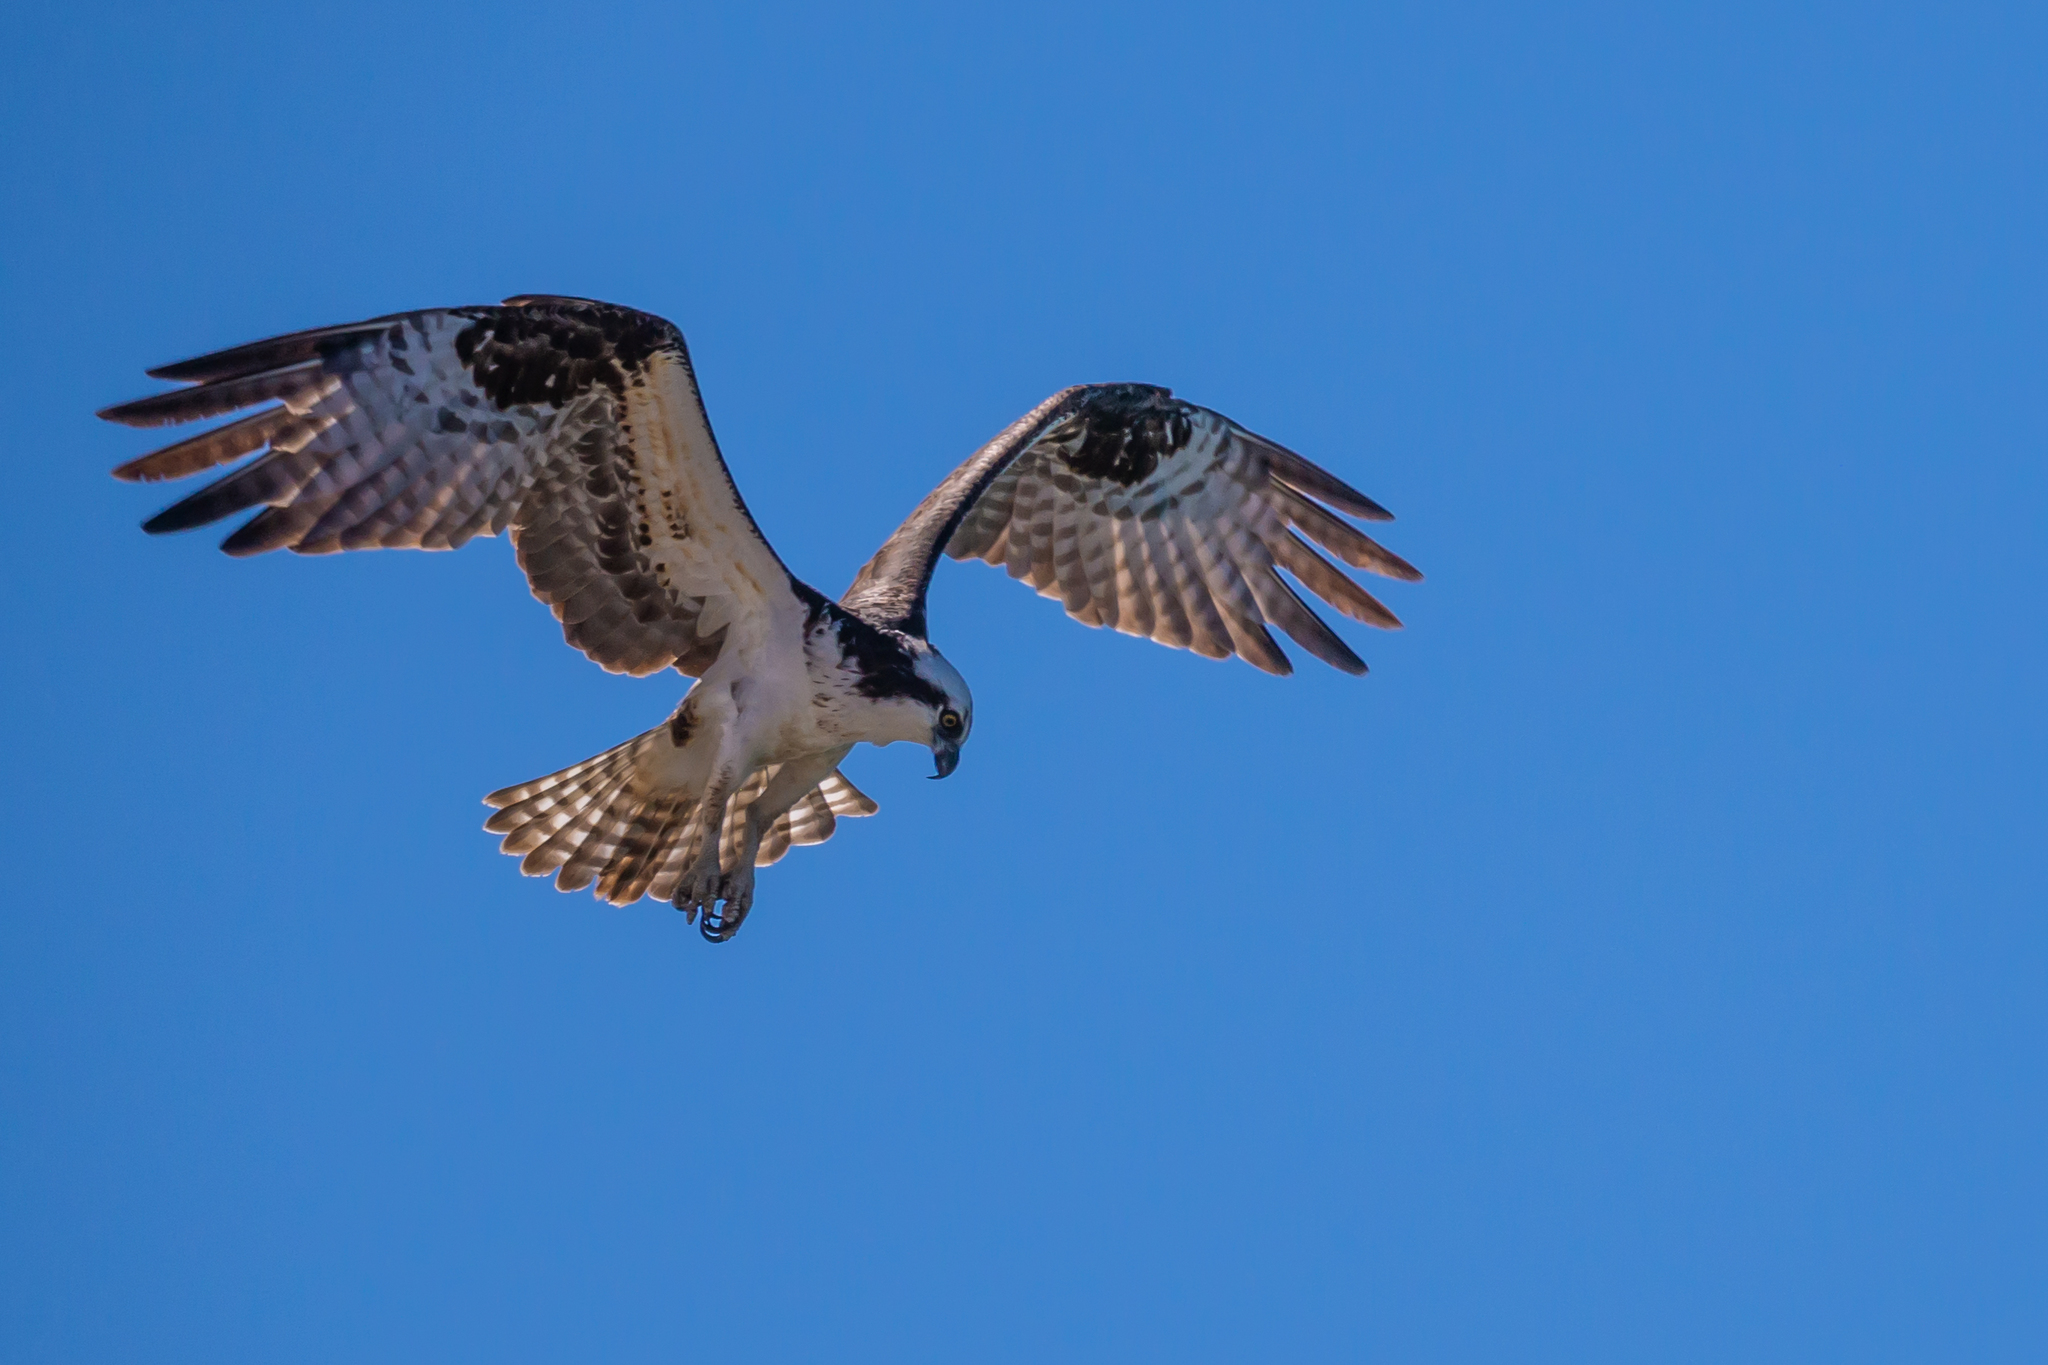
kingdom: Animalia
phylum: Chordata
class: Aves
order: Accipitriformes
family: Pandionidae
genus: Pandion
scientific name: Pandion haliaetus
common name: Osprey
